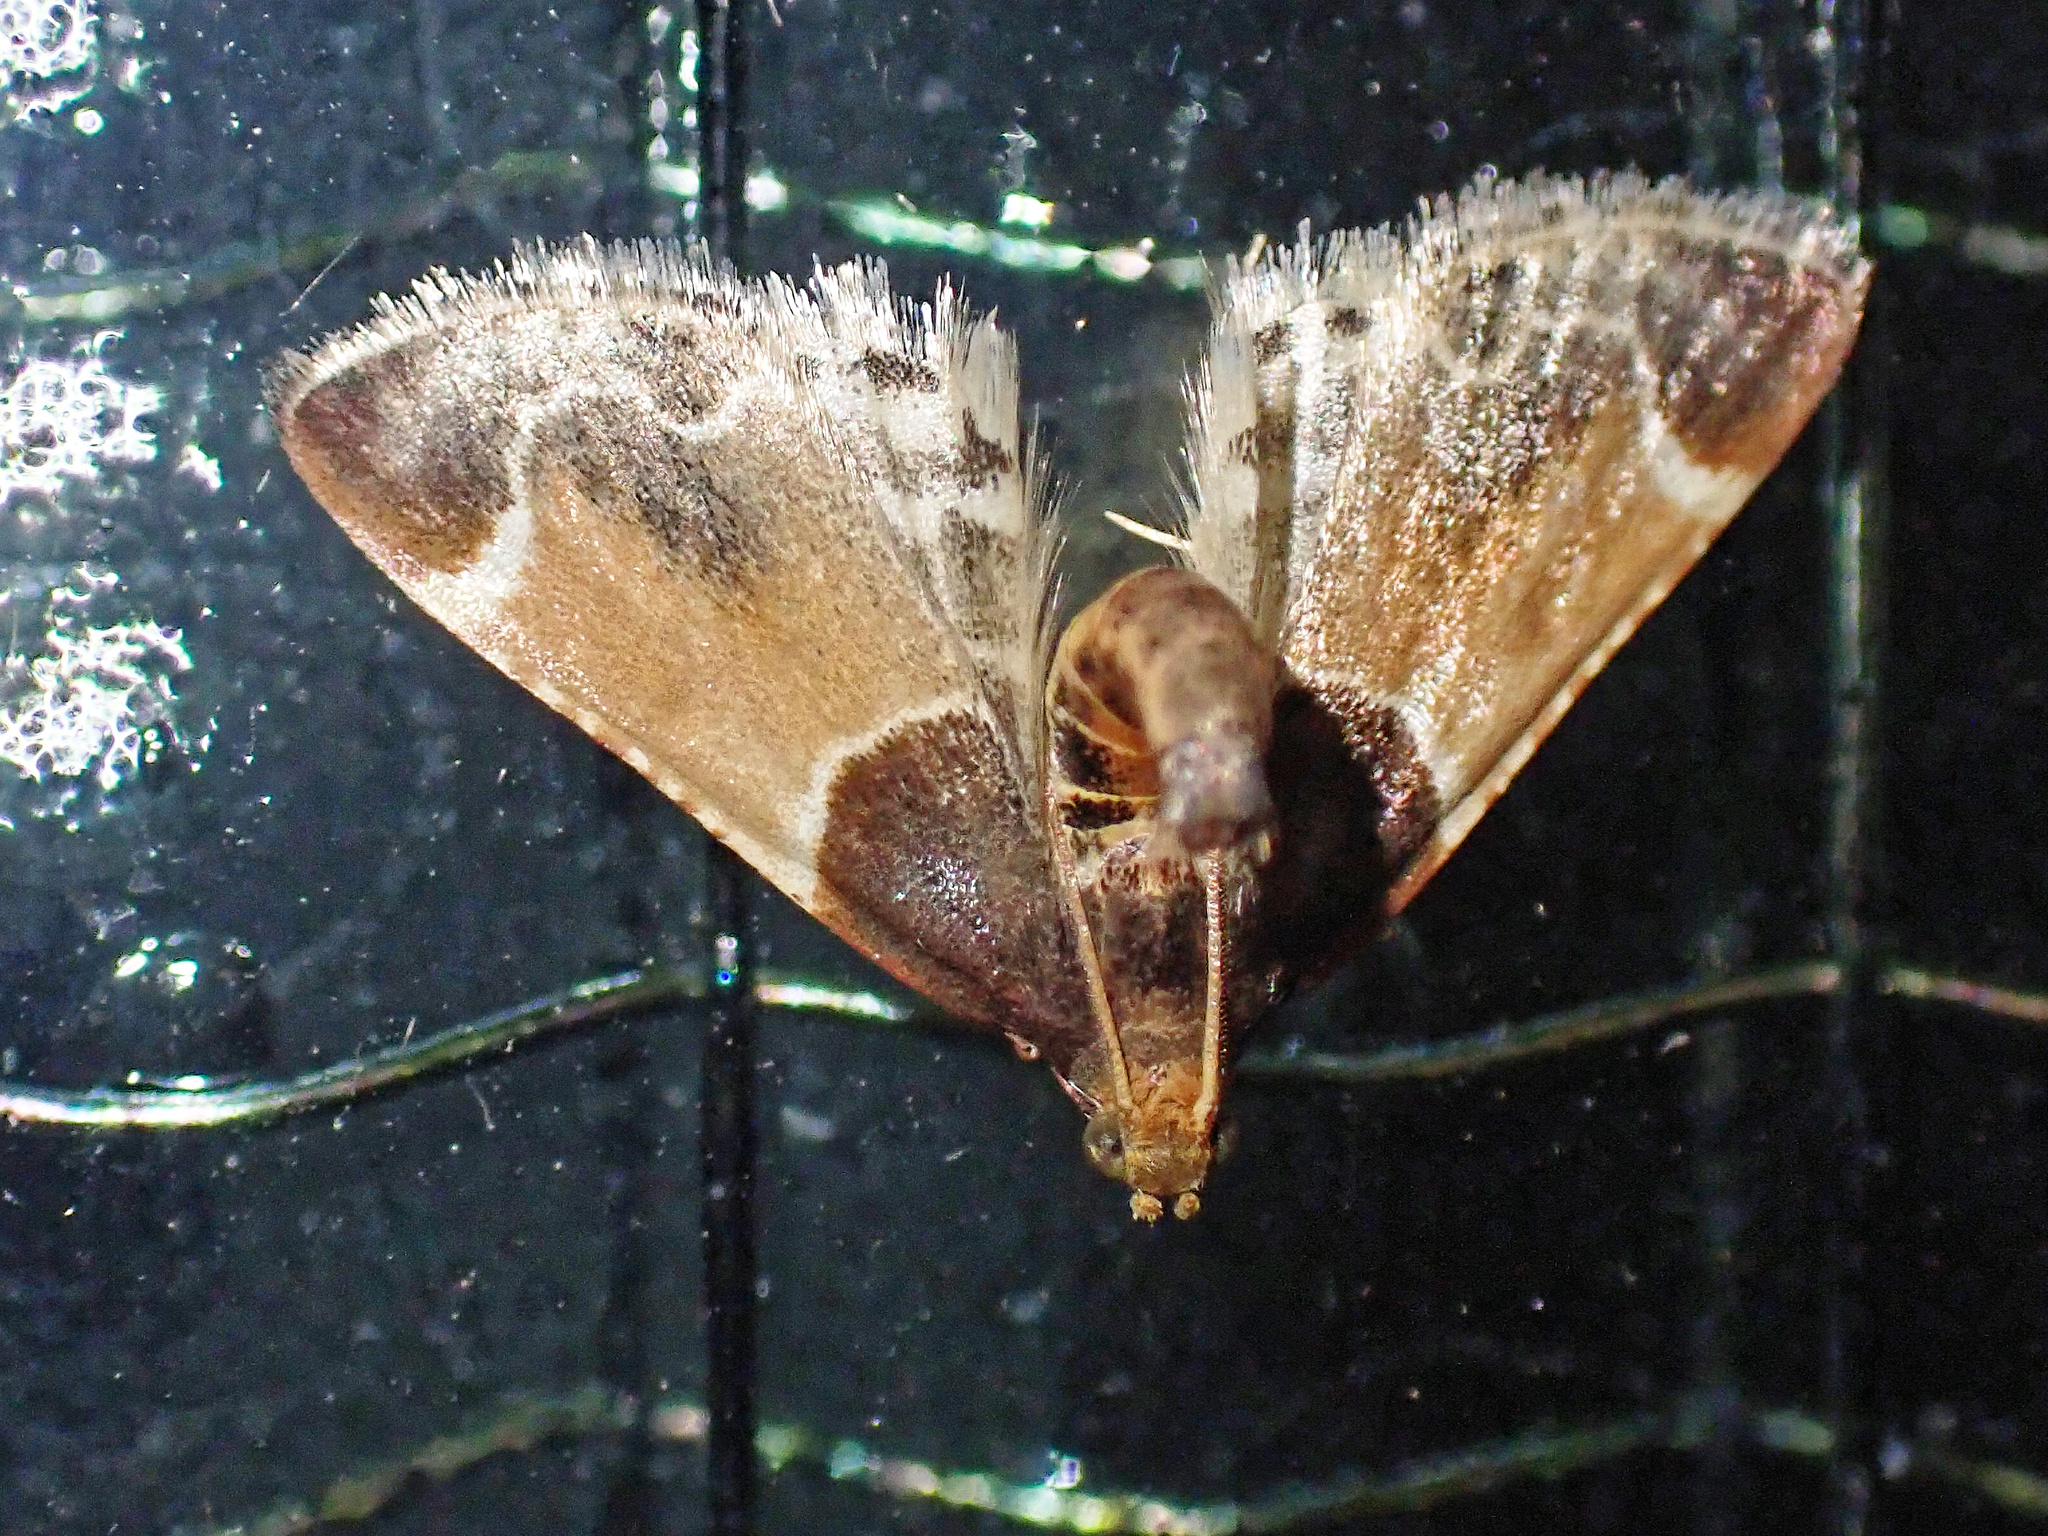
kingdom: Animalia
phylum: Arthropoda
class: Insecta
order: Lepidoptera
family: Pyralidae
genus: Pyralis
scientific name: Pyralis farinalis
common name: Meal moth
